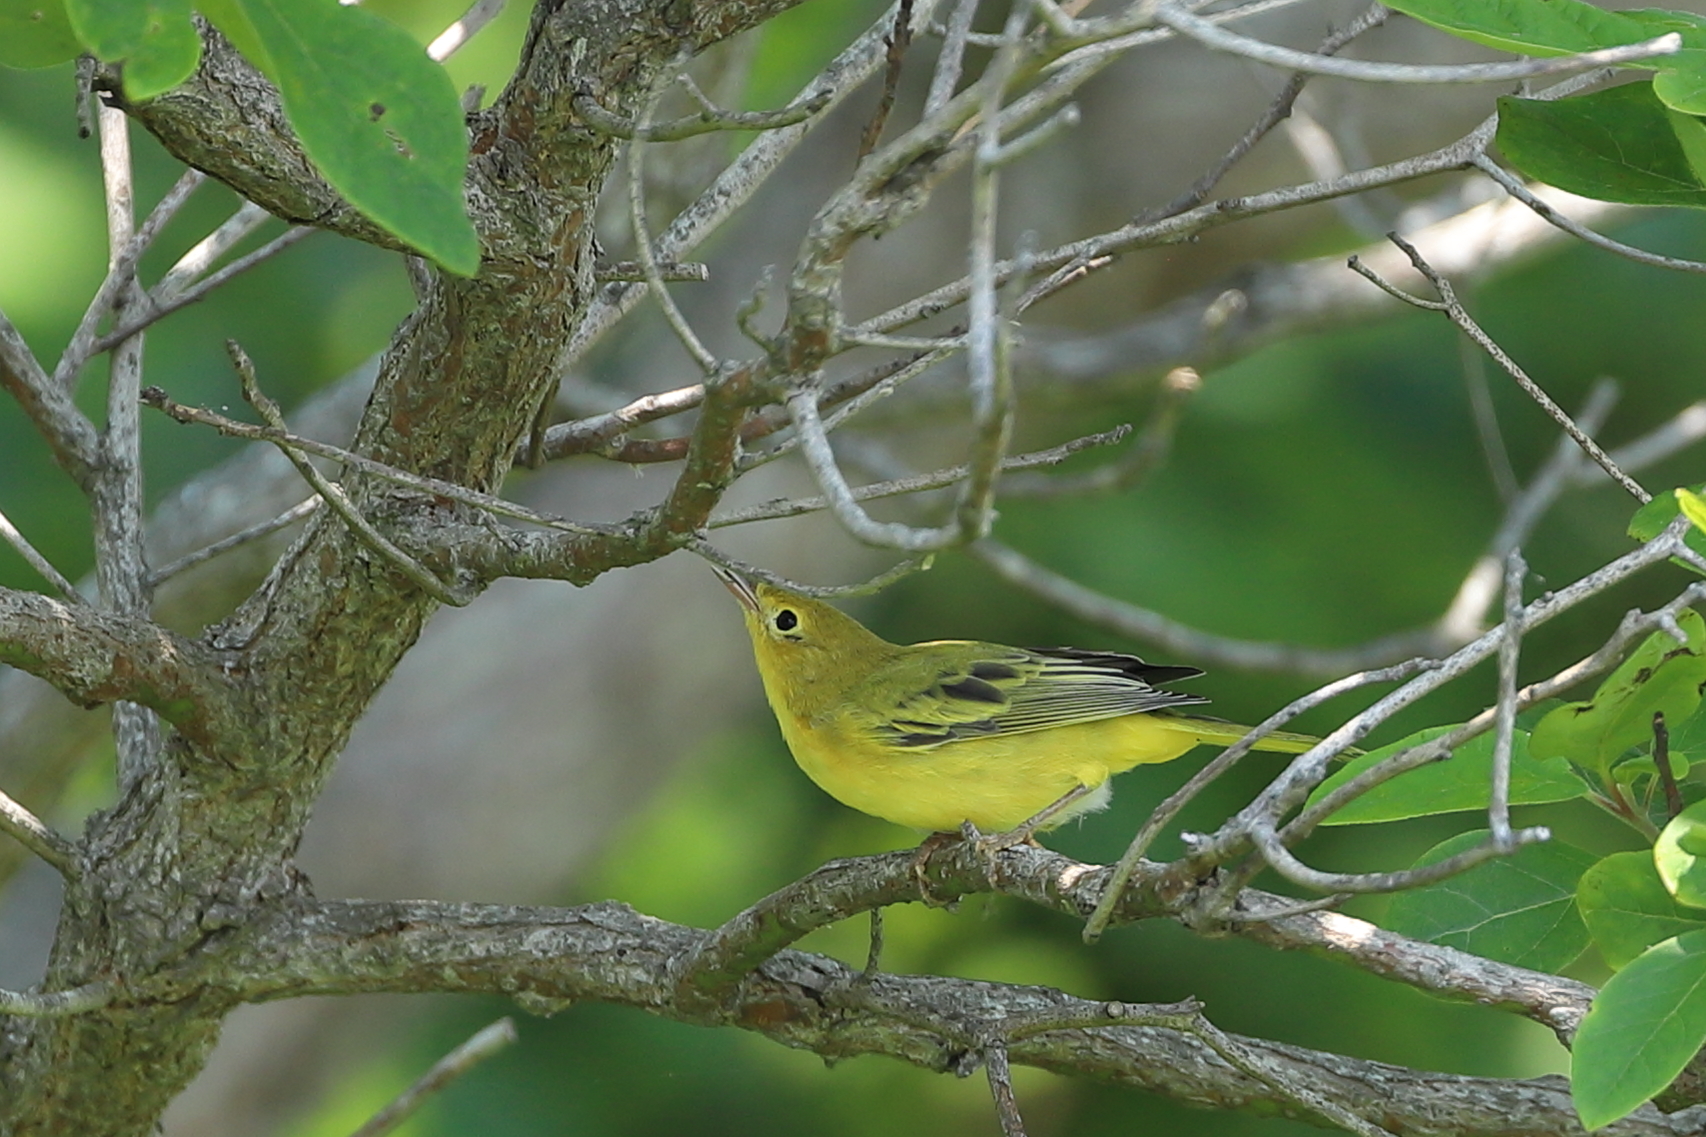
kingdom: Animalia
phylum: Chordata
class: Aves
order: Passeriformes
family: Parulidae
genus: Setophaga
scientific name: Setophaga petechia
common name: Yellow warbler
